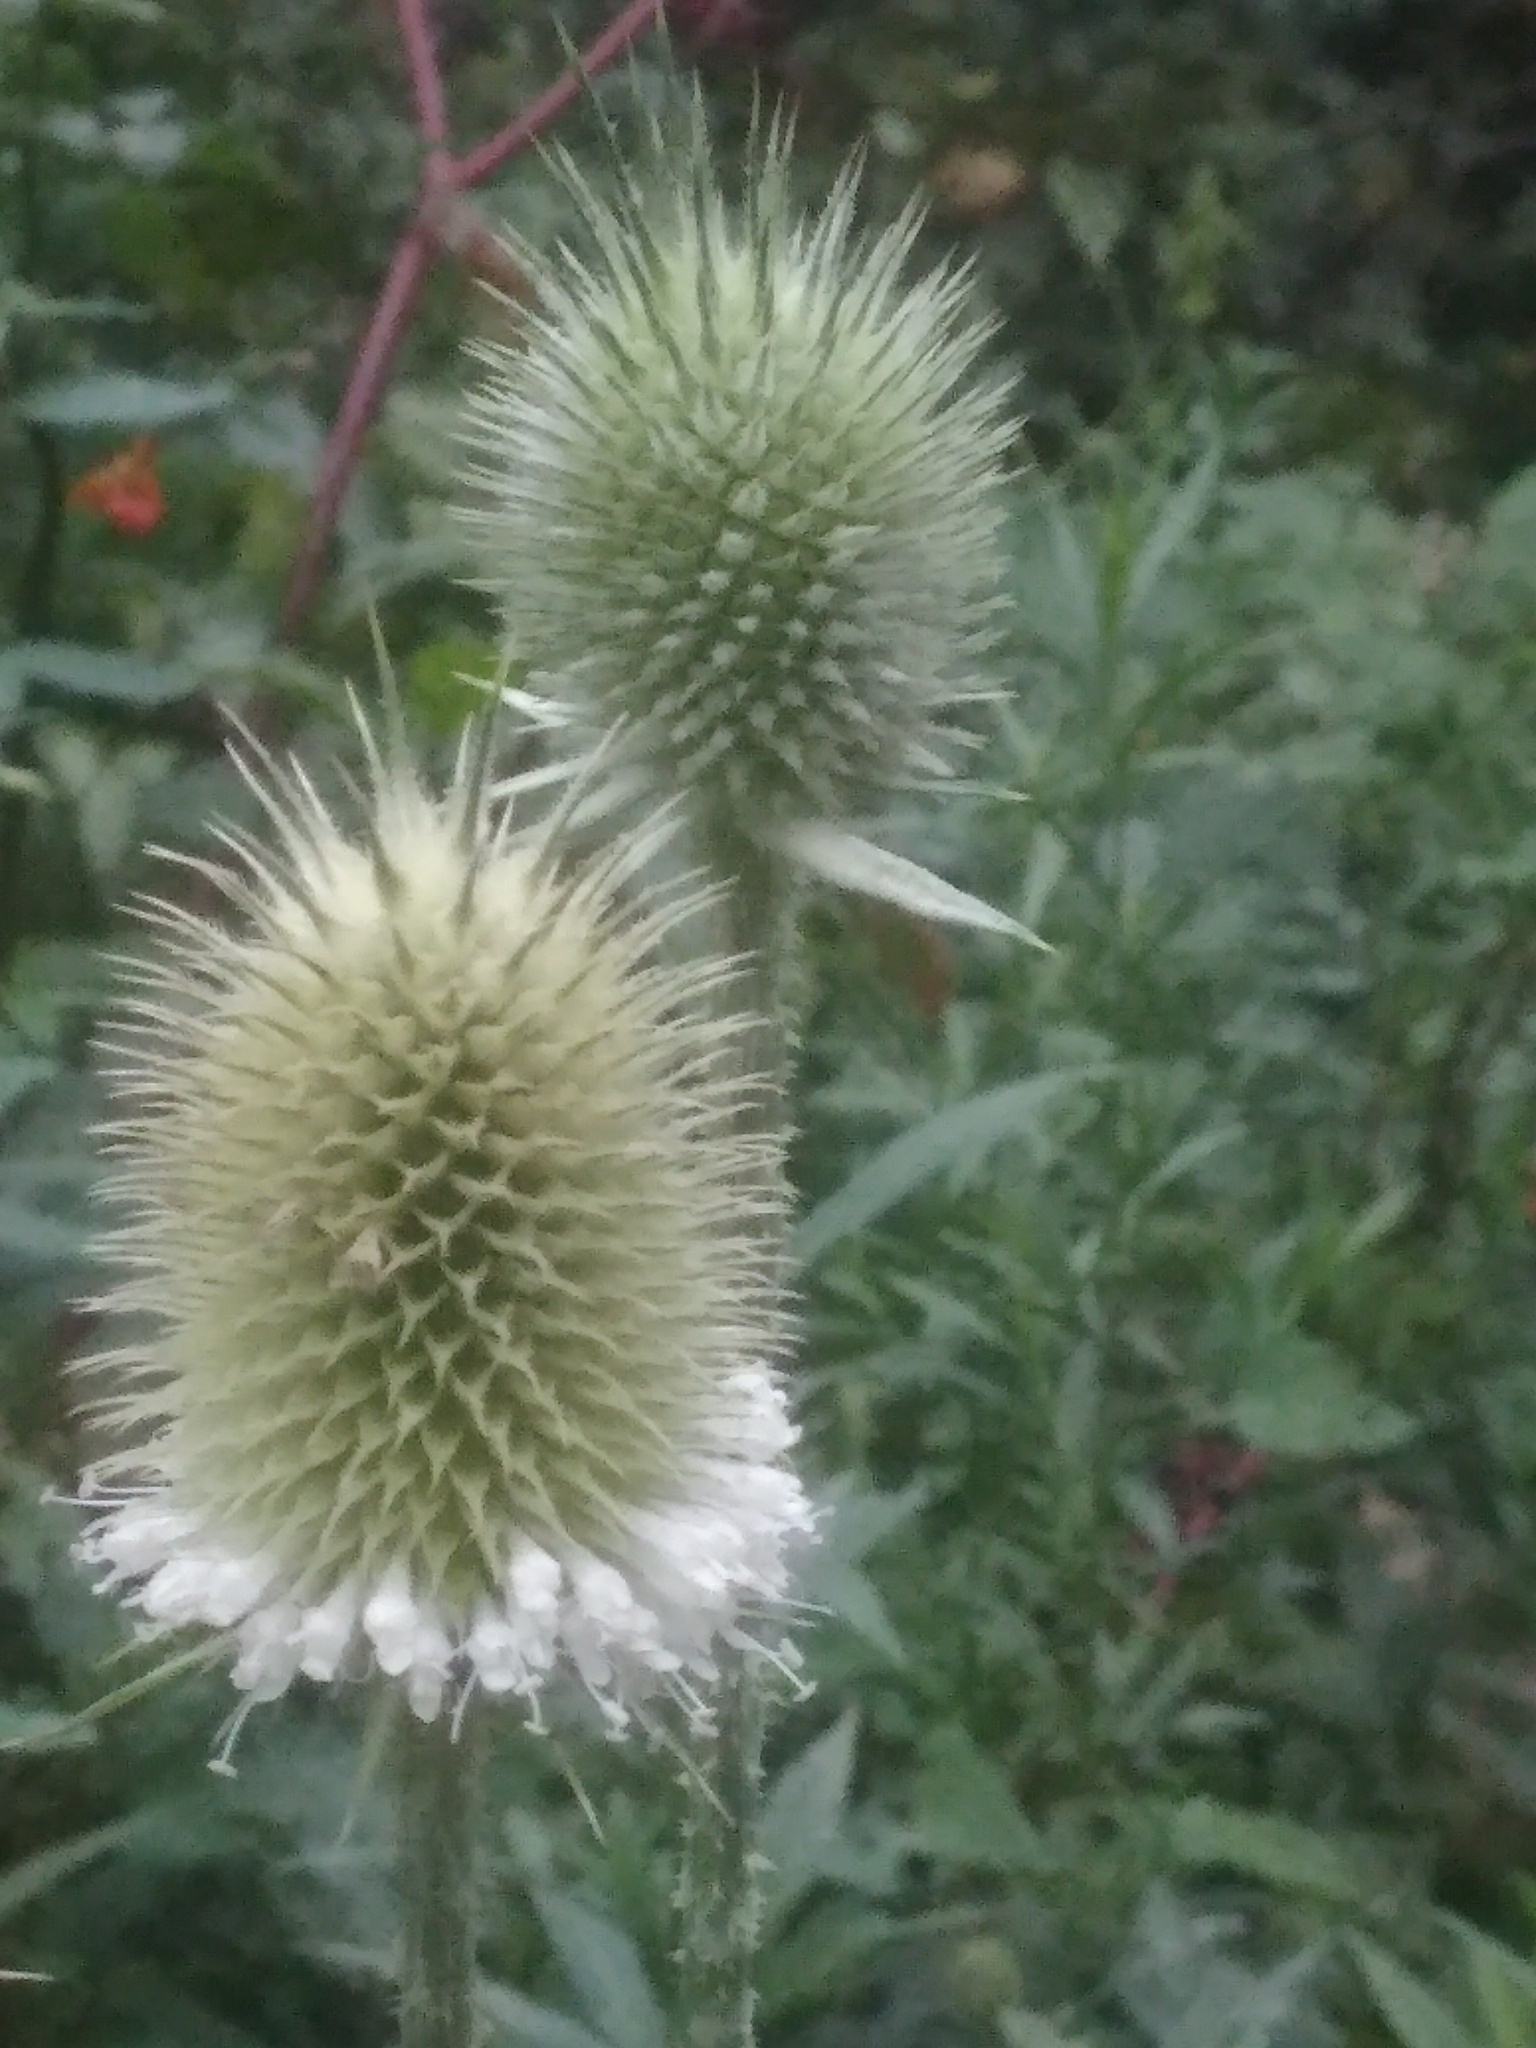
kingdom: Plantae
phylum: Tracheophyta
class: Magnoliopsida
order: Dipsacales
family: Caprifoliaceae
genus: Dipsacus
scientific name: Dipsacus laciniatus
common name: Cut-leaved teasel
